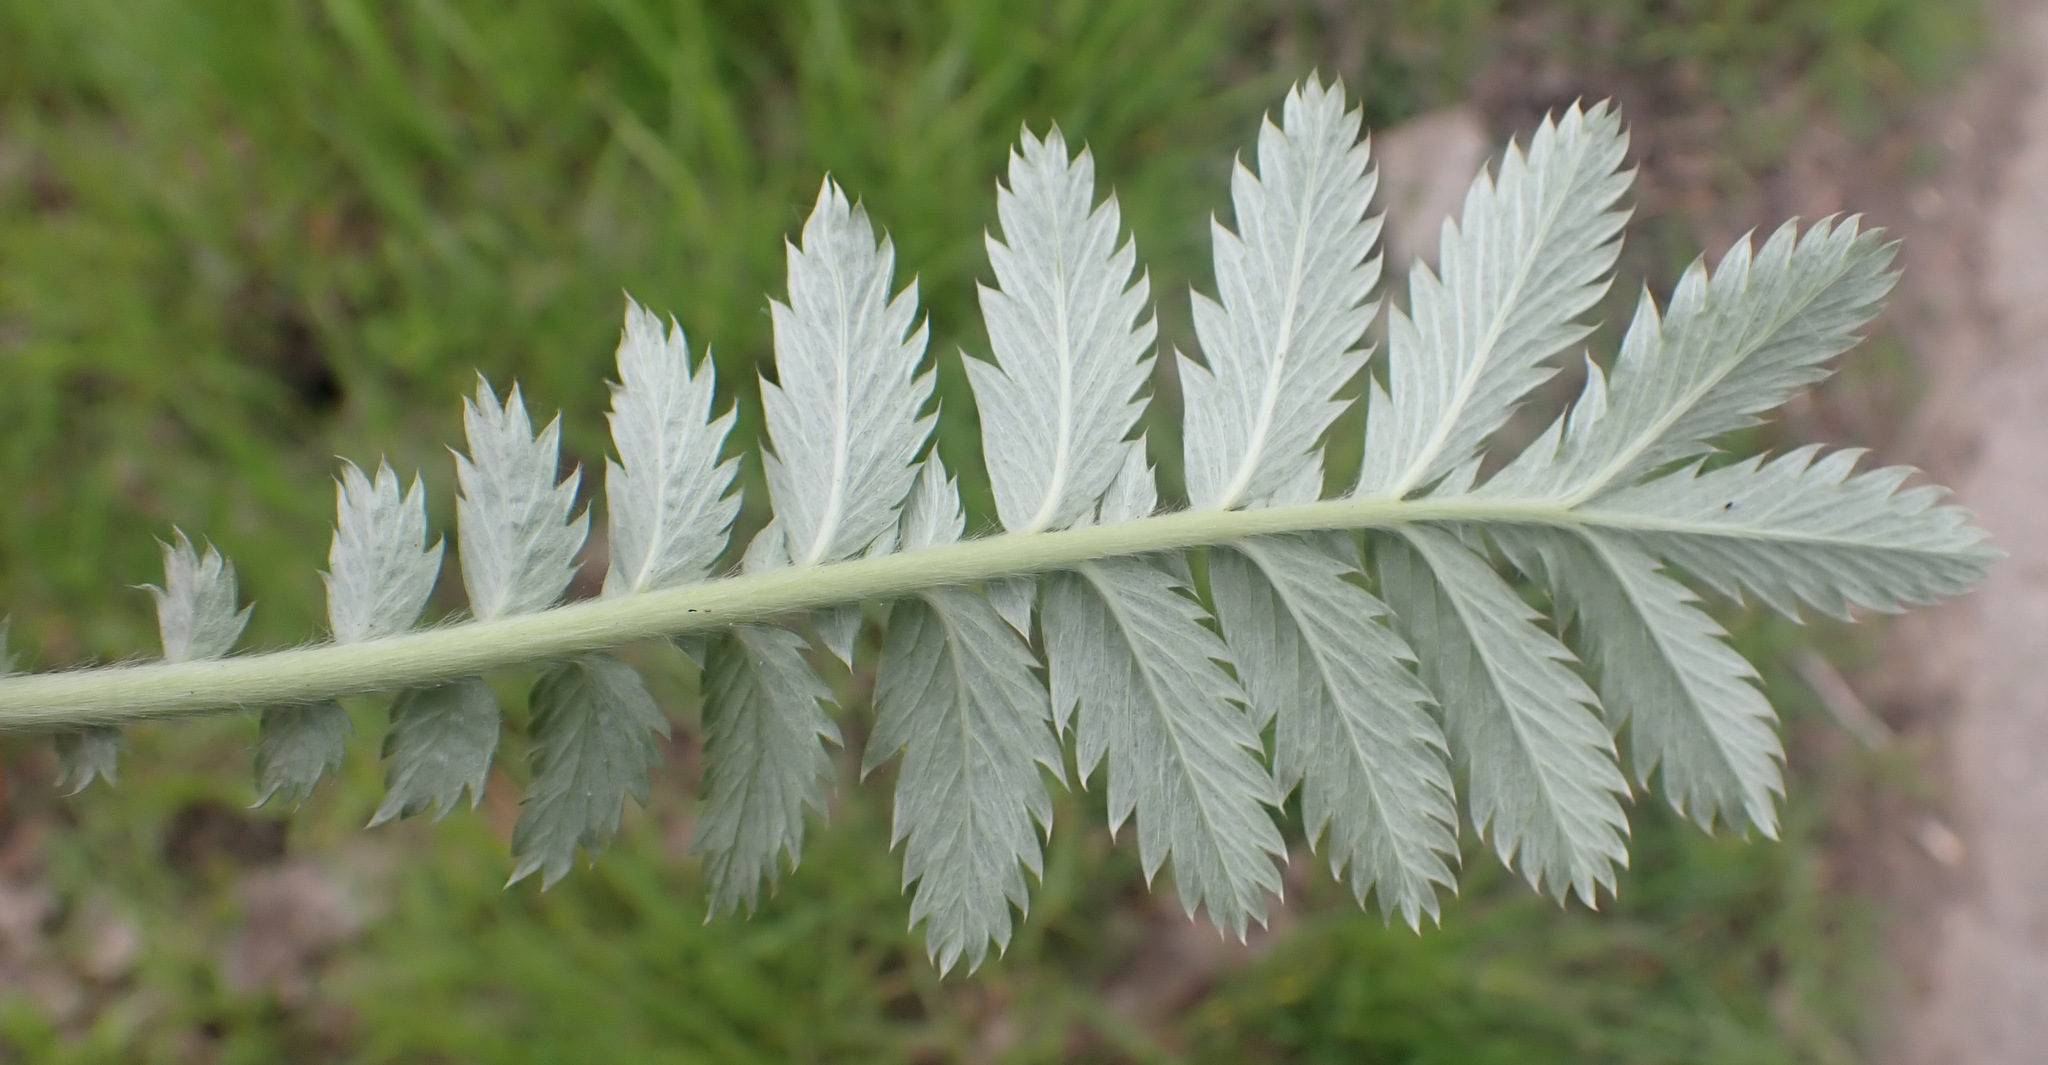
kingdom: Plantae
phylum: Tracheophyta
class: Magnoliopsida
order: Rosales
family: Rosaceae
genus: Argentina
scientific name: Argentina anserina
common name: Common silverweed
